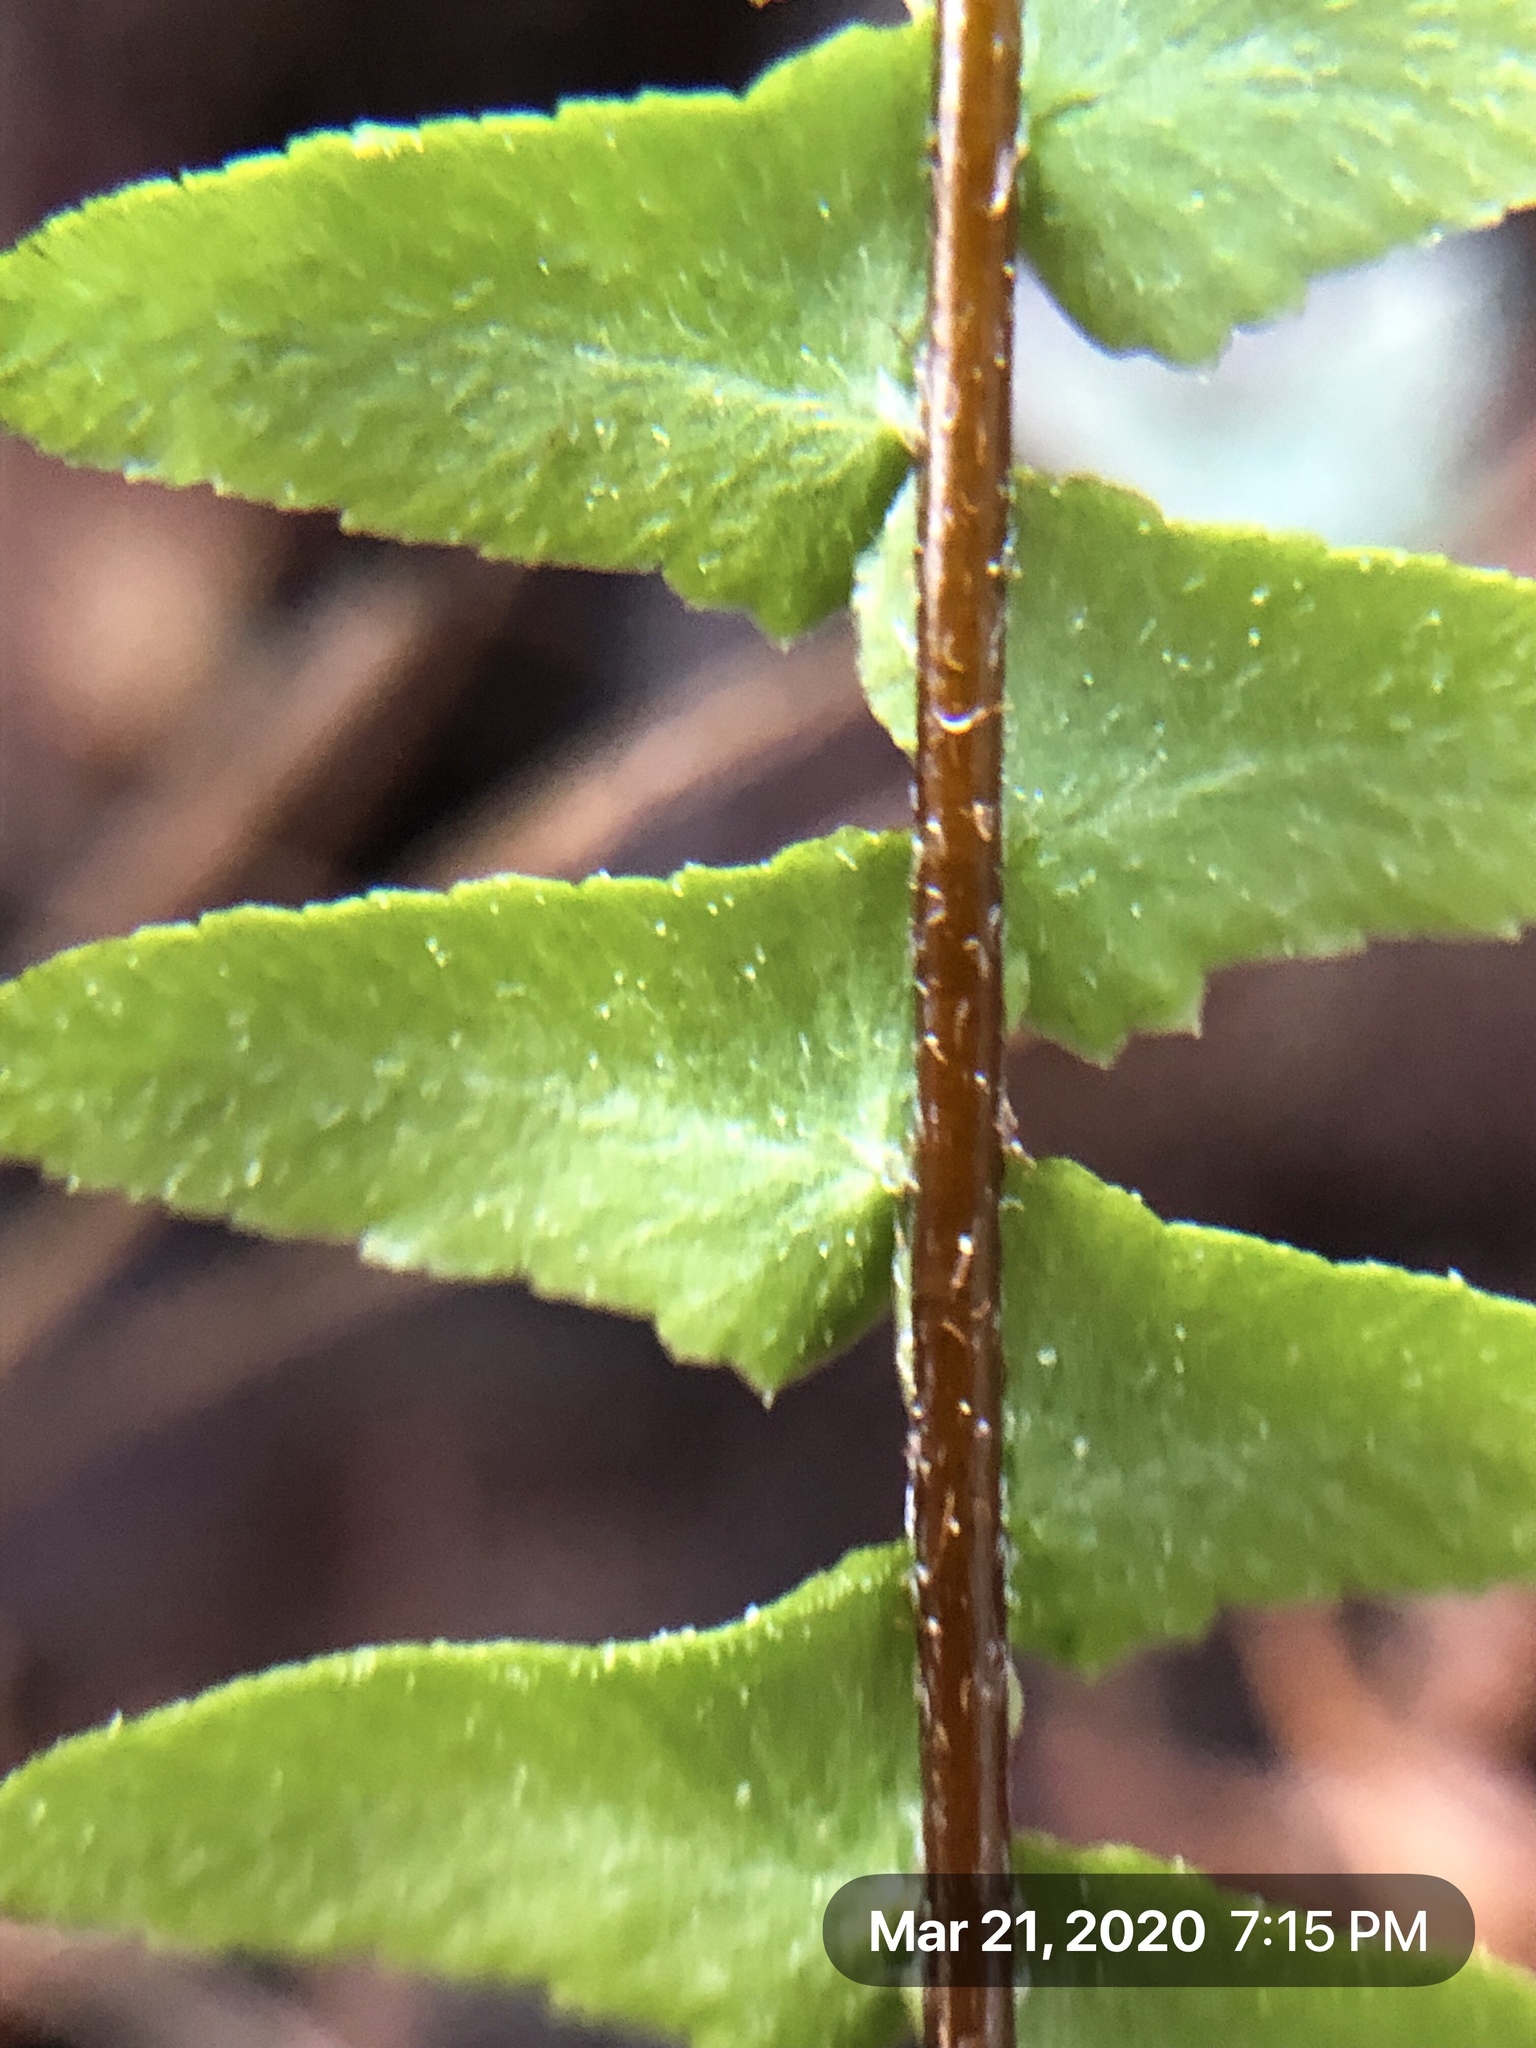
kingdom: Plantae
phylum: Tracheophyta
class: Polypodiopsida
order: Polypodiales
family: Aspleniaceae
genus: Asplenium
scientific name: Asplenium platyneuron
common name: Ebony spleenwort
